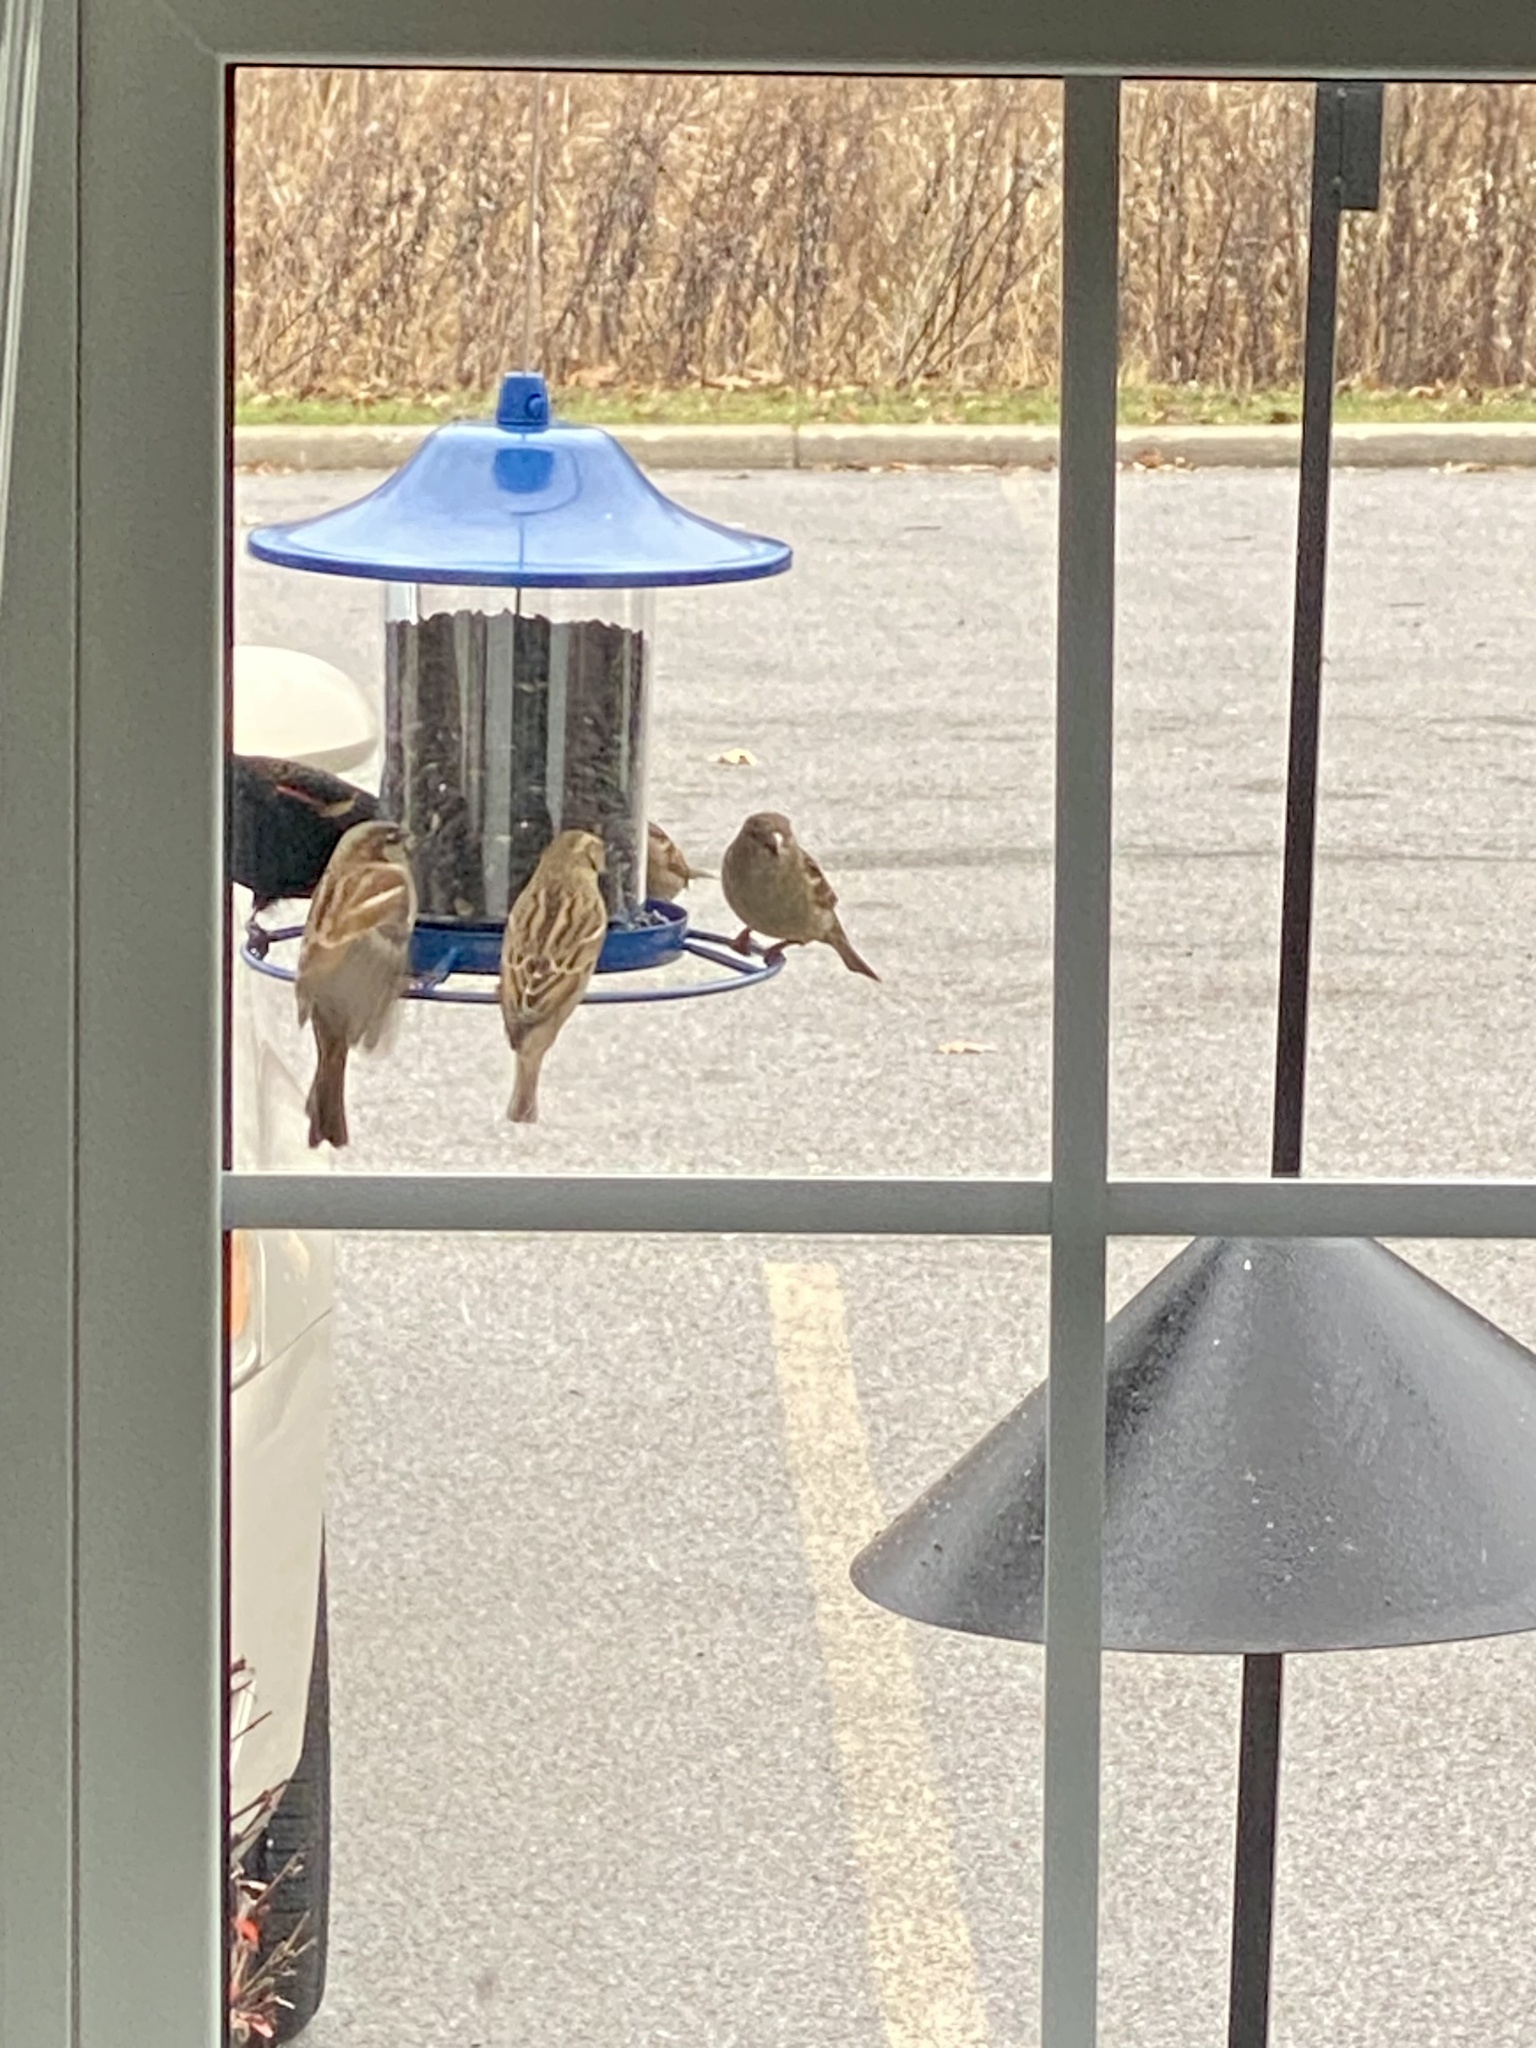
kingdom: Animalia
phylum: Chordata
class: Aves
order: Passeriformes
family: Passeridae
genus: Passer
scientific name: Passer domesticus
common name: House sparrow
